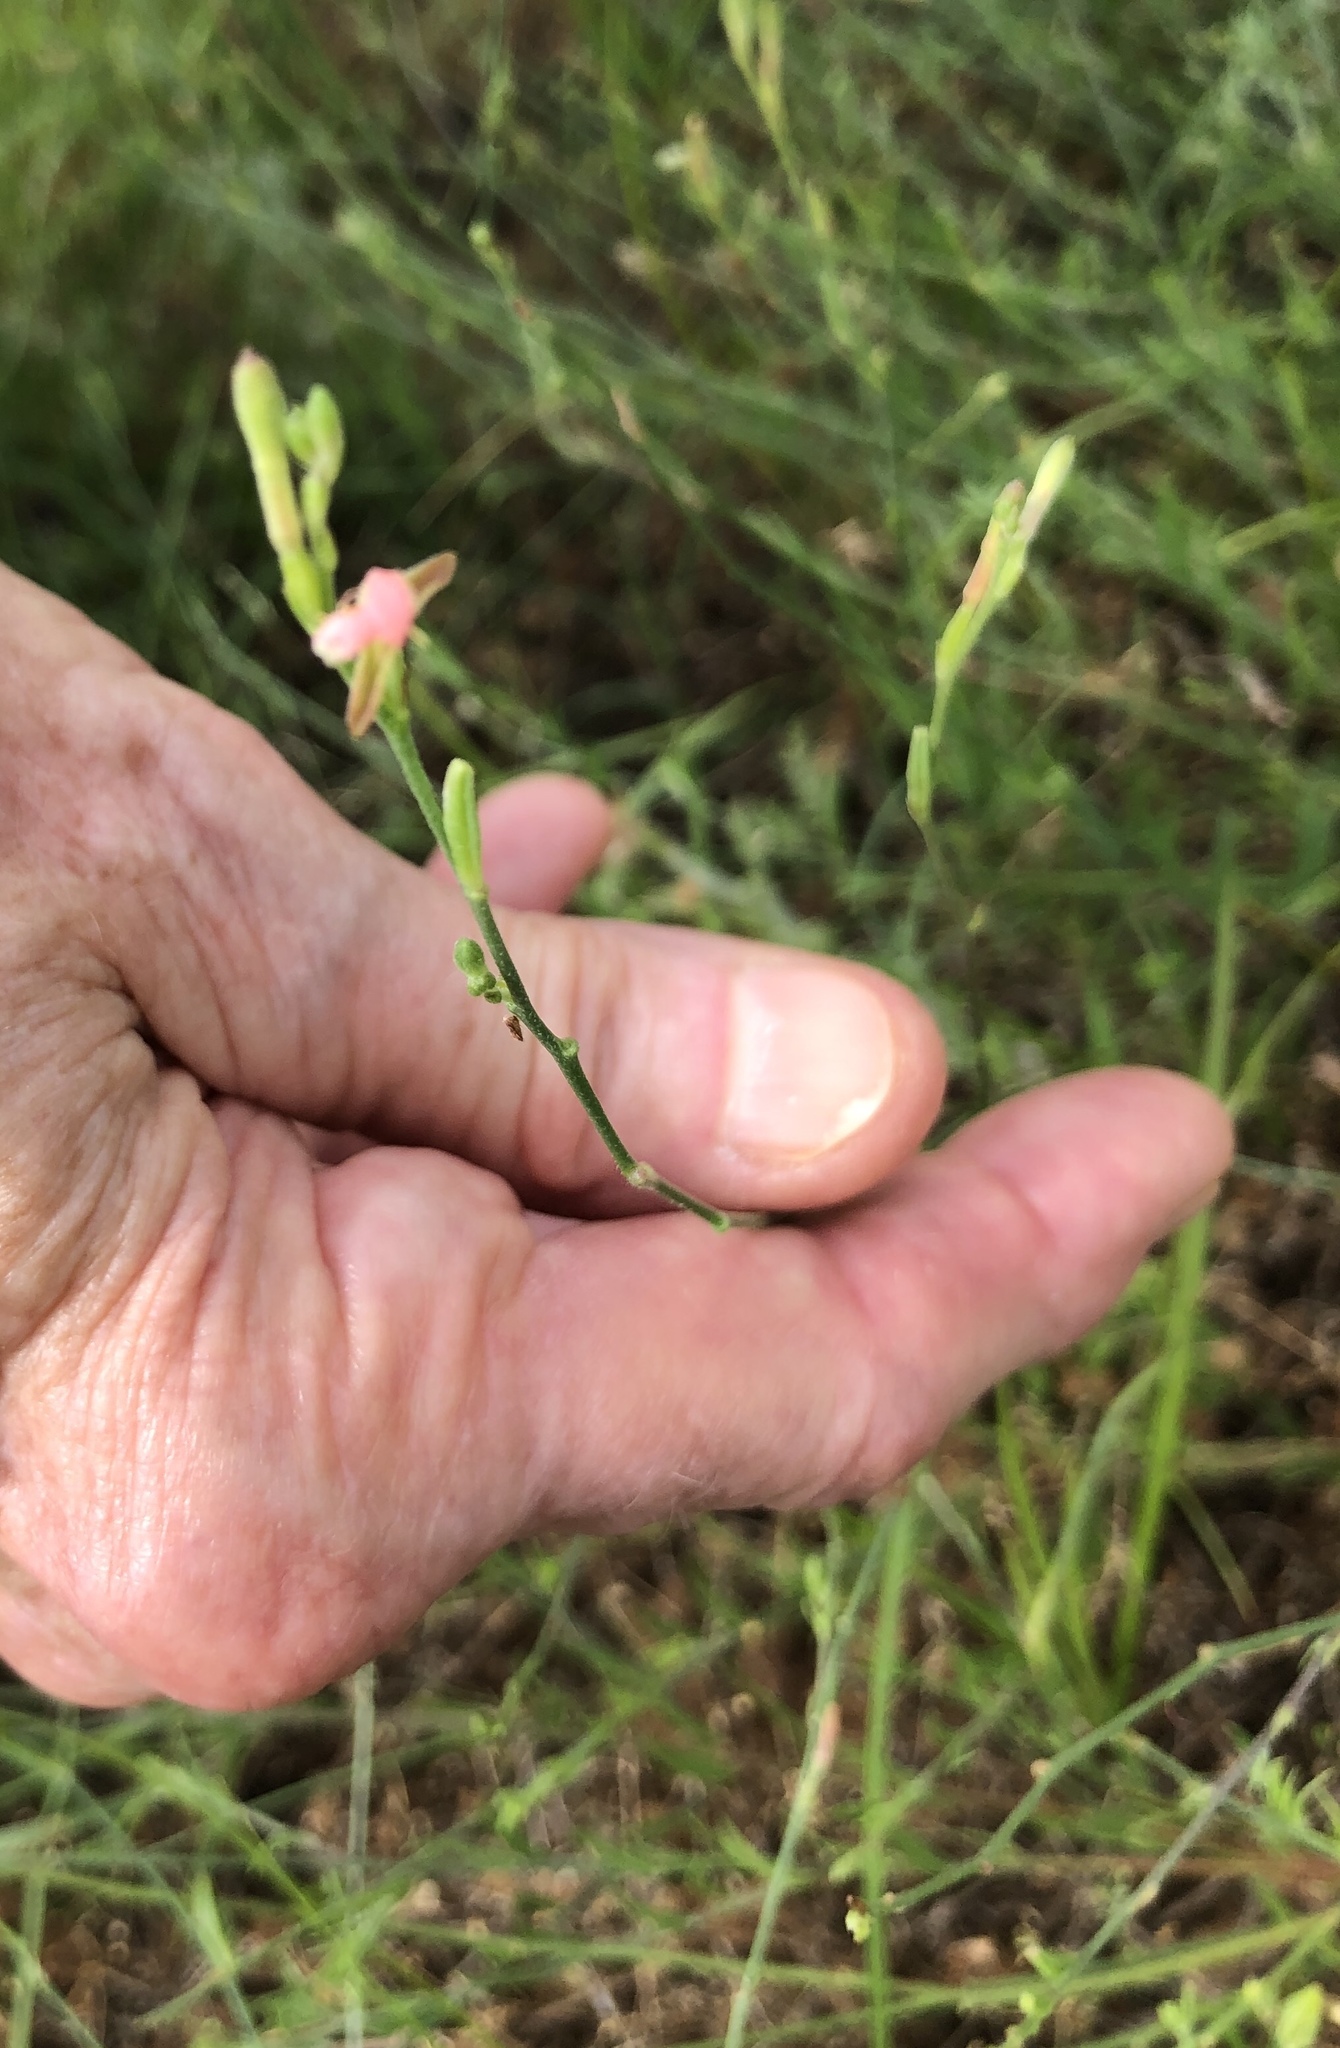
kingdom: Plantae
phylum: Tracheophyta
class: Magnoliopsida
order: Myrtales
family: Onagraceae
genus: Oenothera
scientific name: Oenothera suffulta
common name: Kisses
